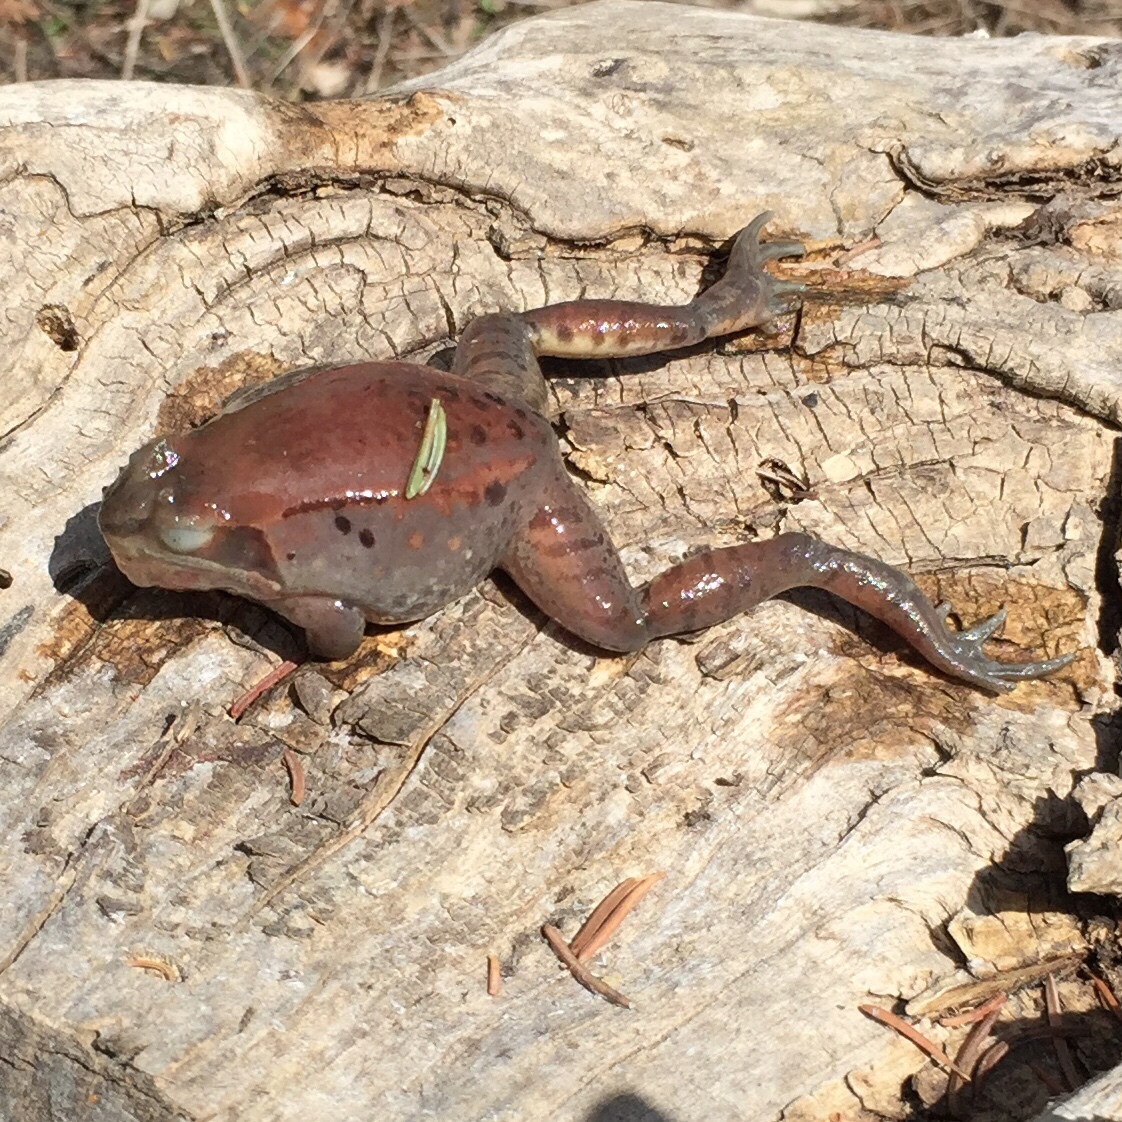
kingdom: Animalia
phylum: Chordata
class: Amphibia
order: Anura
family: Ranidae
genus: Lithobates
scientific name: Lithobates sylvaticus
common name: Wood frog
